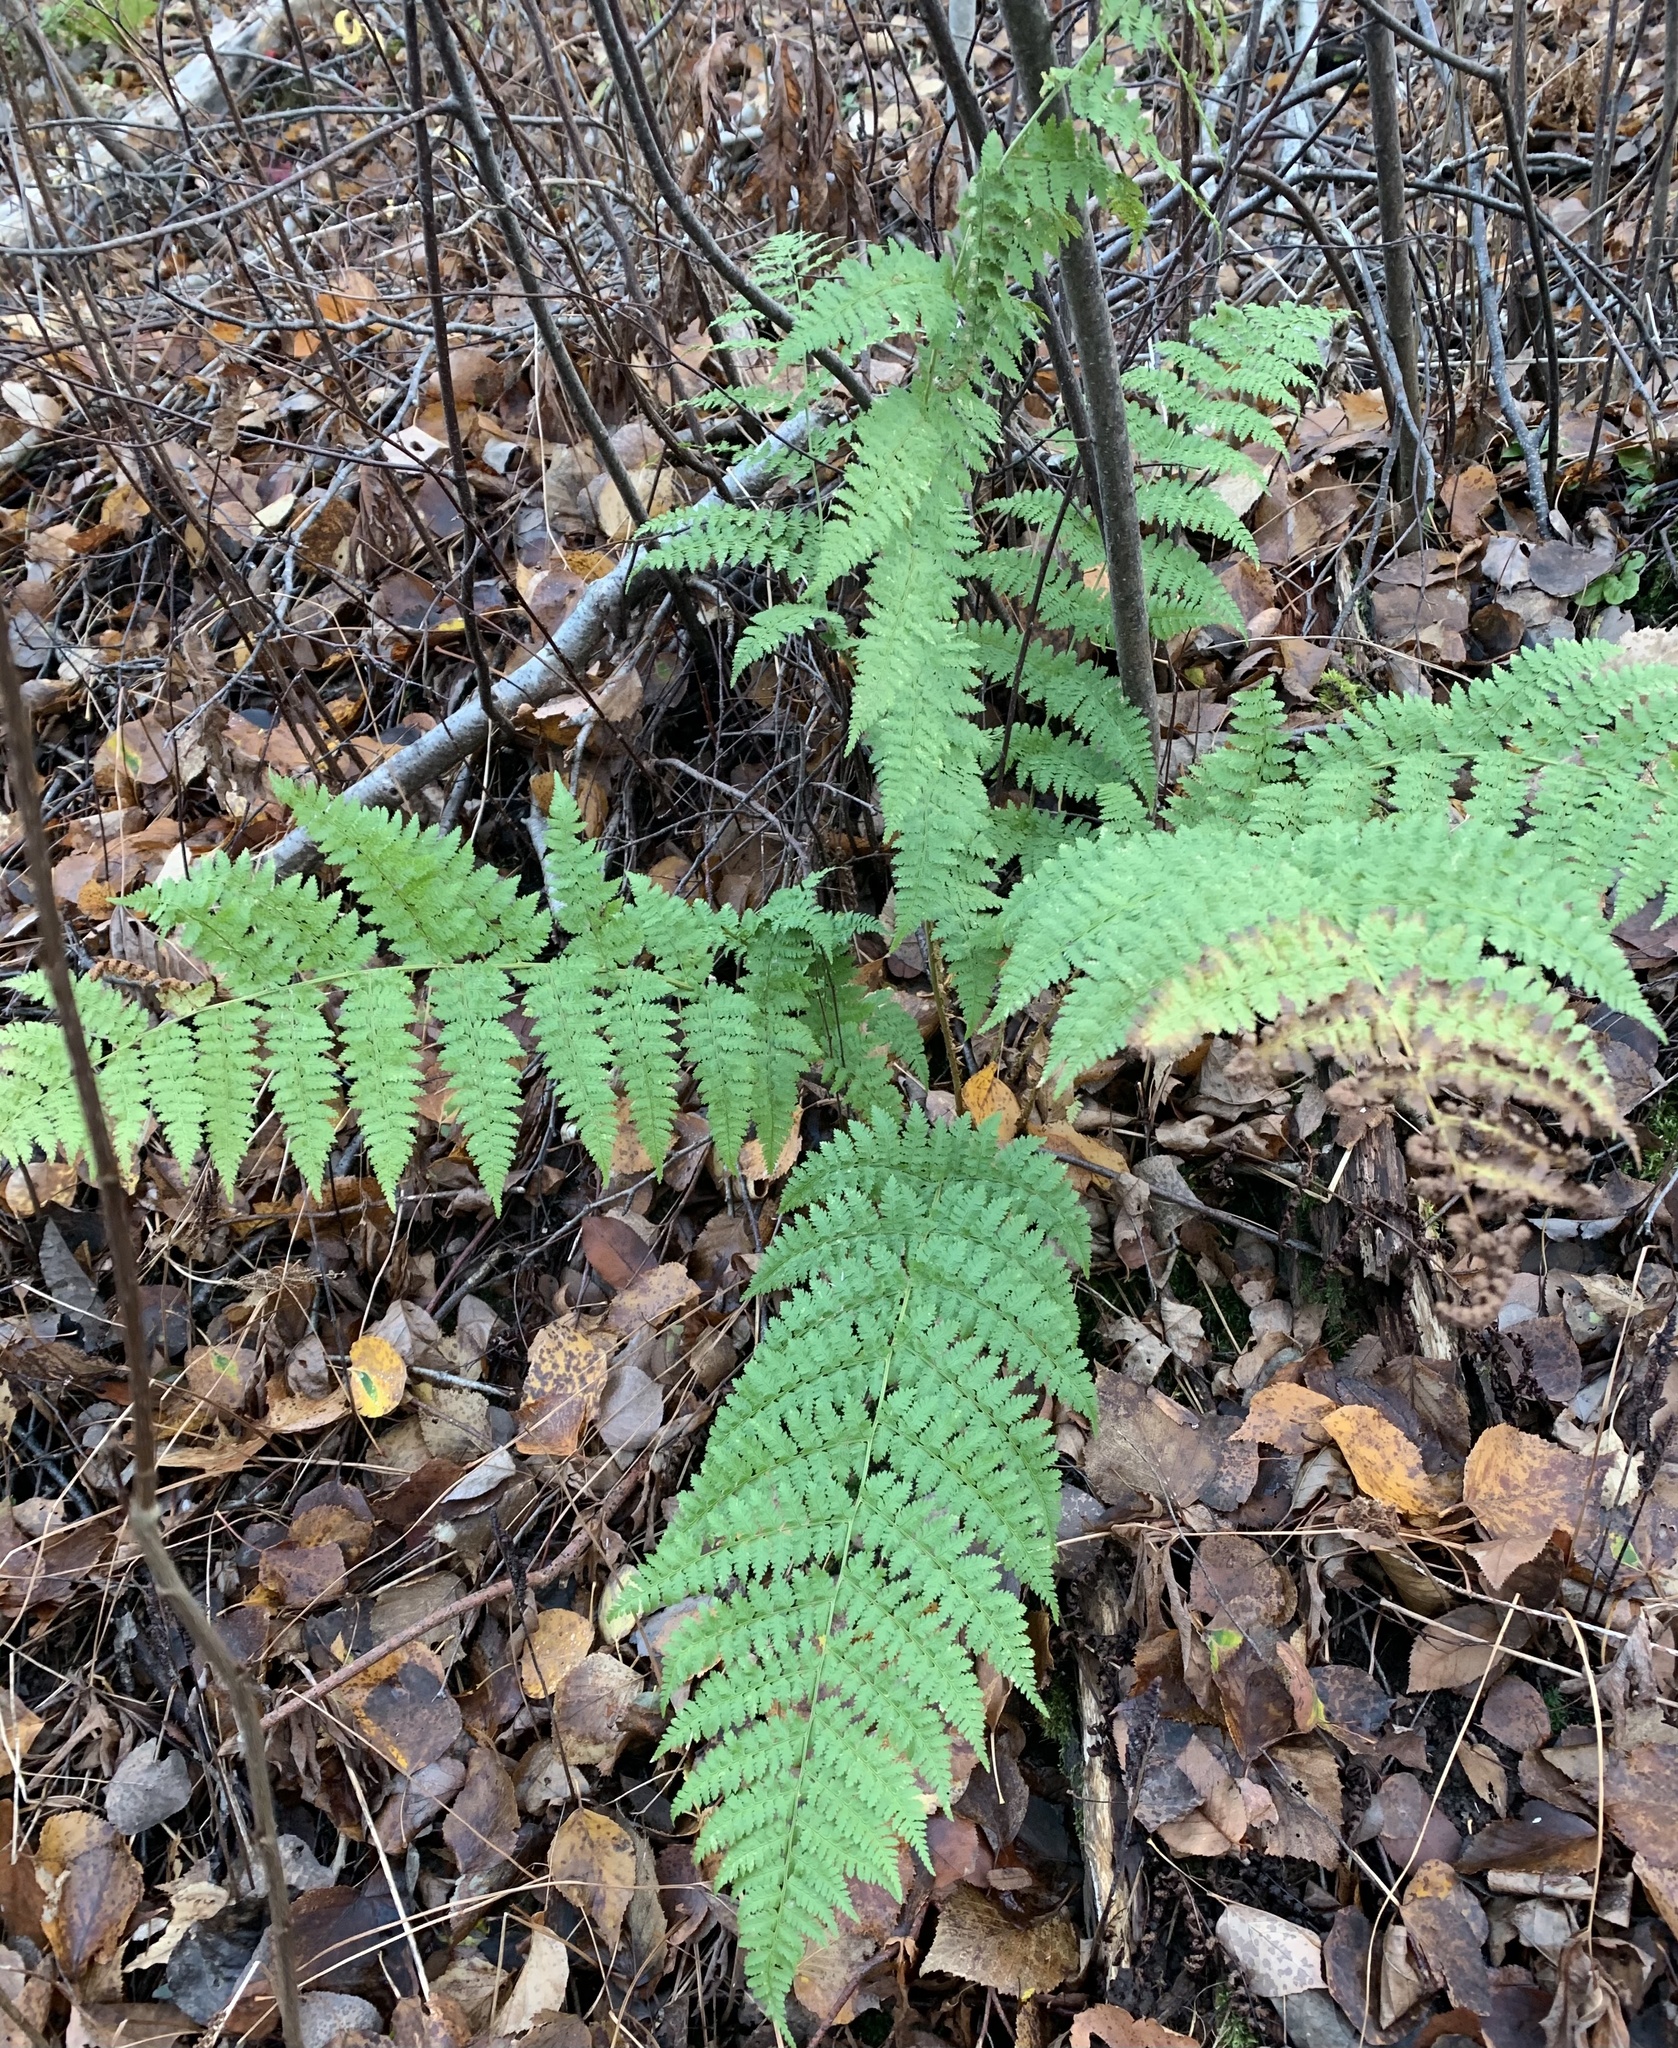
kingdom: Plantae
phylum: Tracheophyta
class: Polypodiopsida
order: Polypodiales
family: Dryopteridaceae
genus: Dryopteris
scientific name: Dryopteris intermedia
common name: Evergreen wood fern
